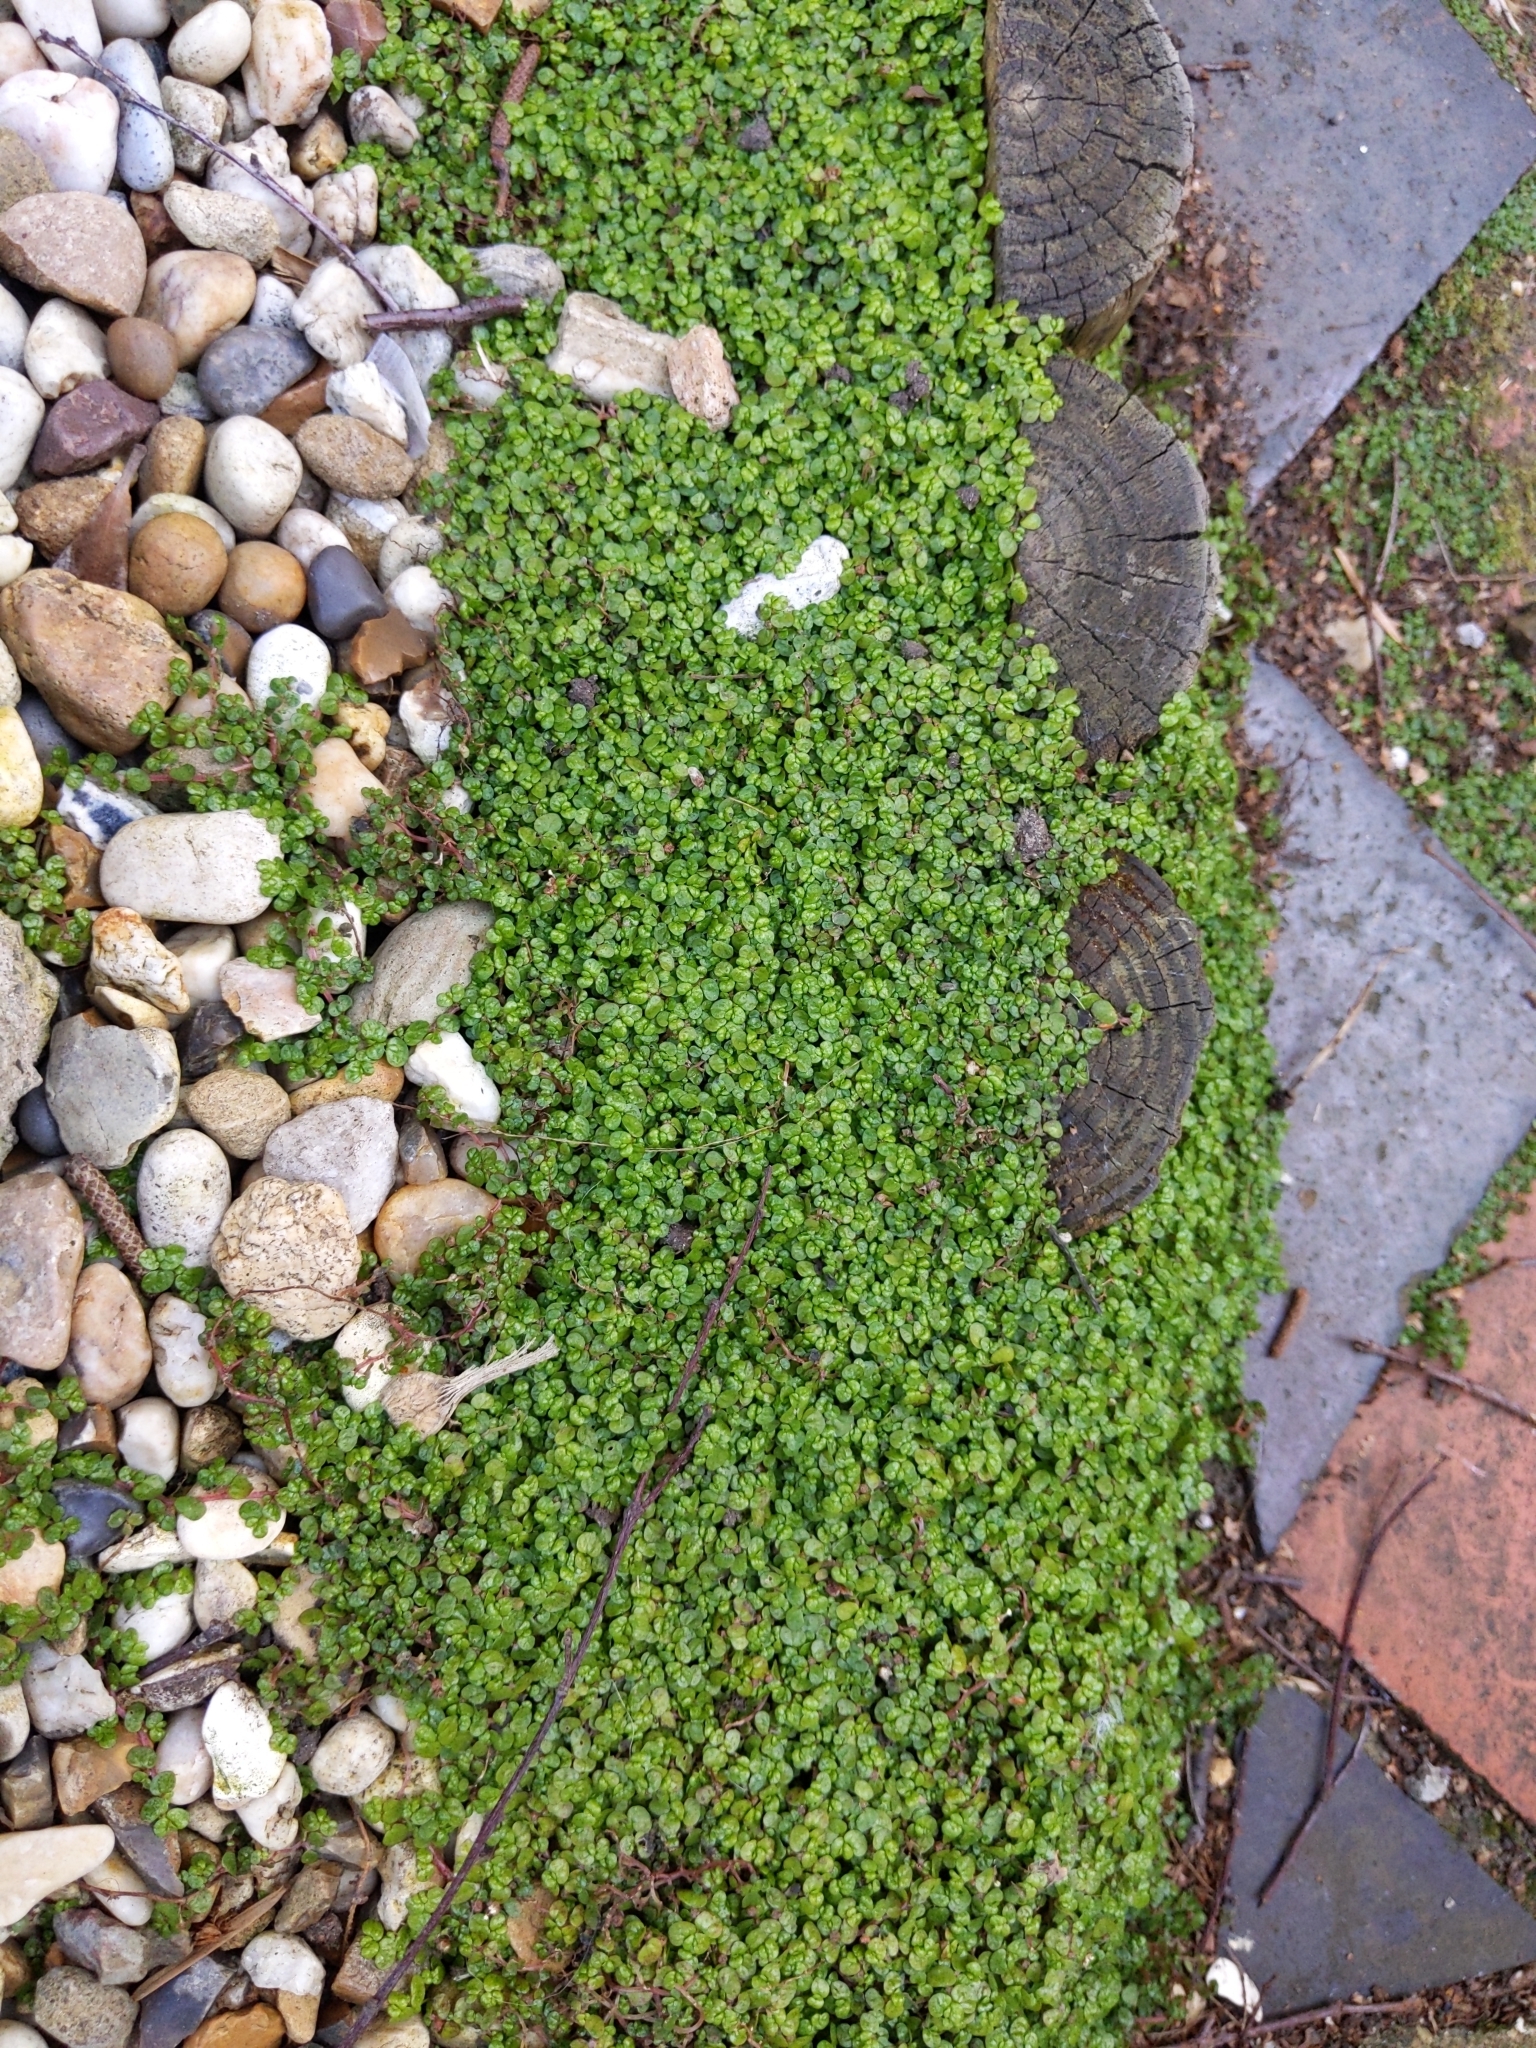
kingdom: Plantae
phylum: Tracheophyta
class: Magnoliopsida
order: Rosales
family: Urticaceae
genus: Soleirolia
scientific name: Soleirolia soleirolii
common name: Mind-your-own-business
